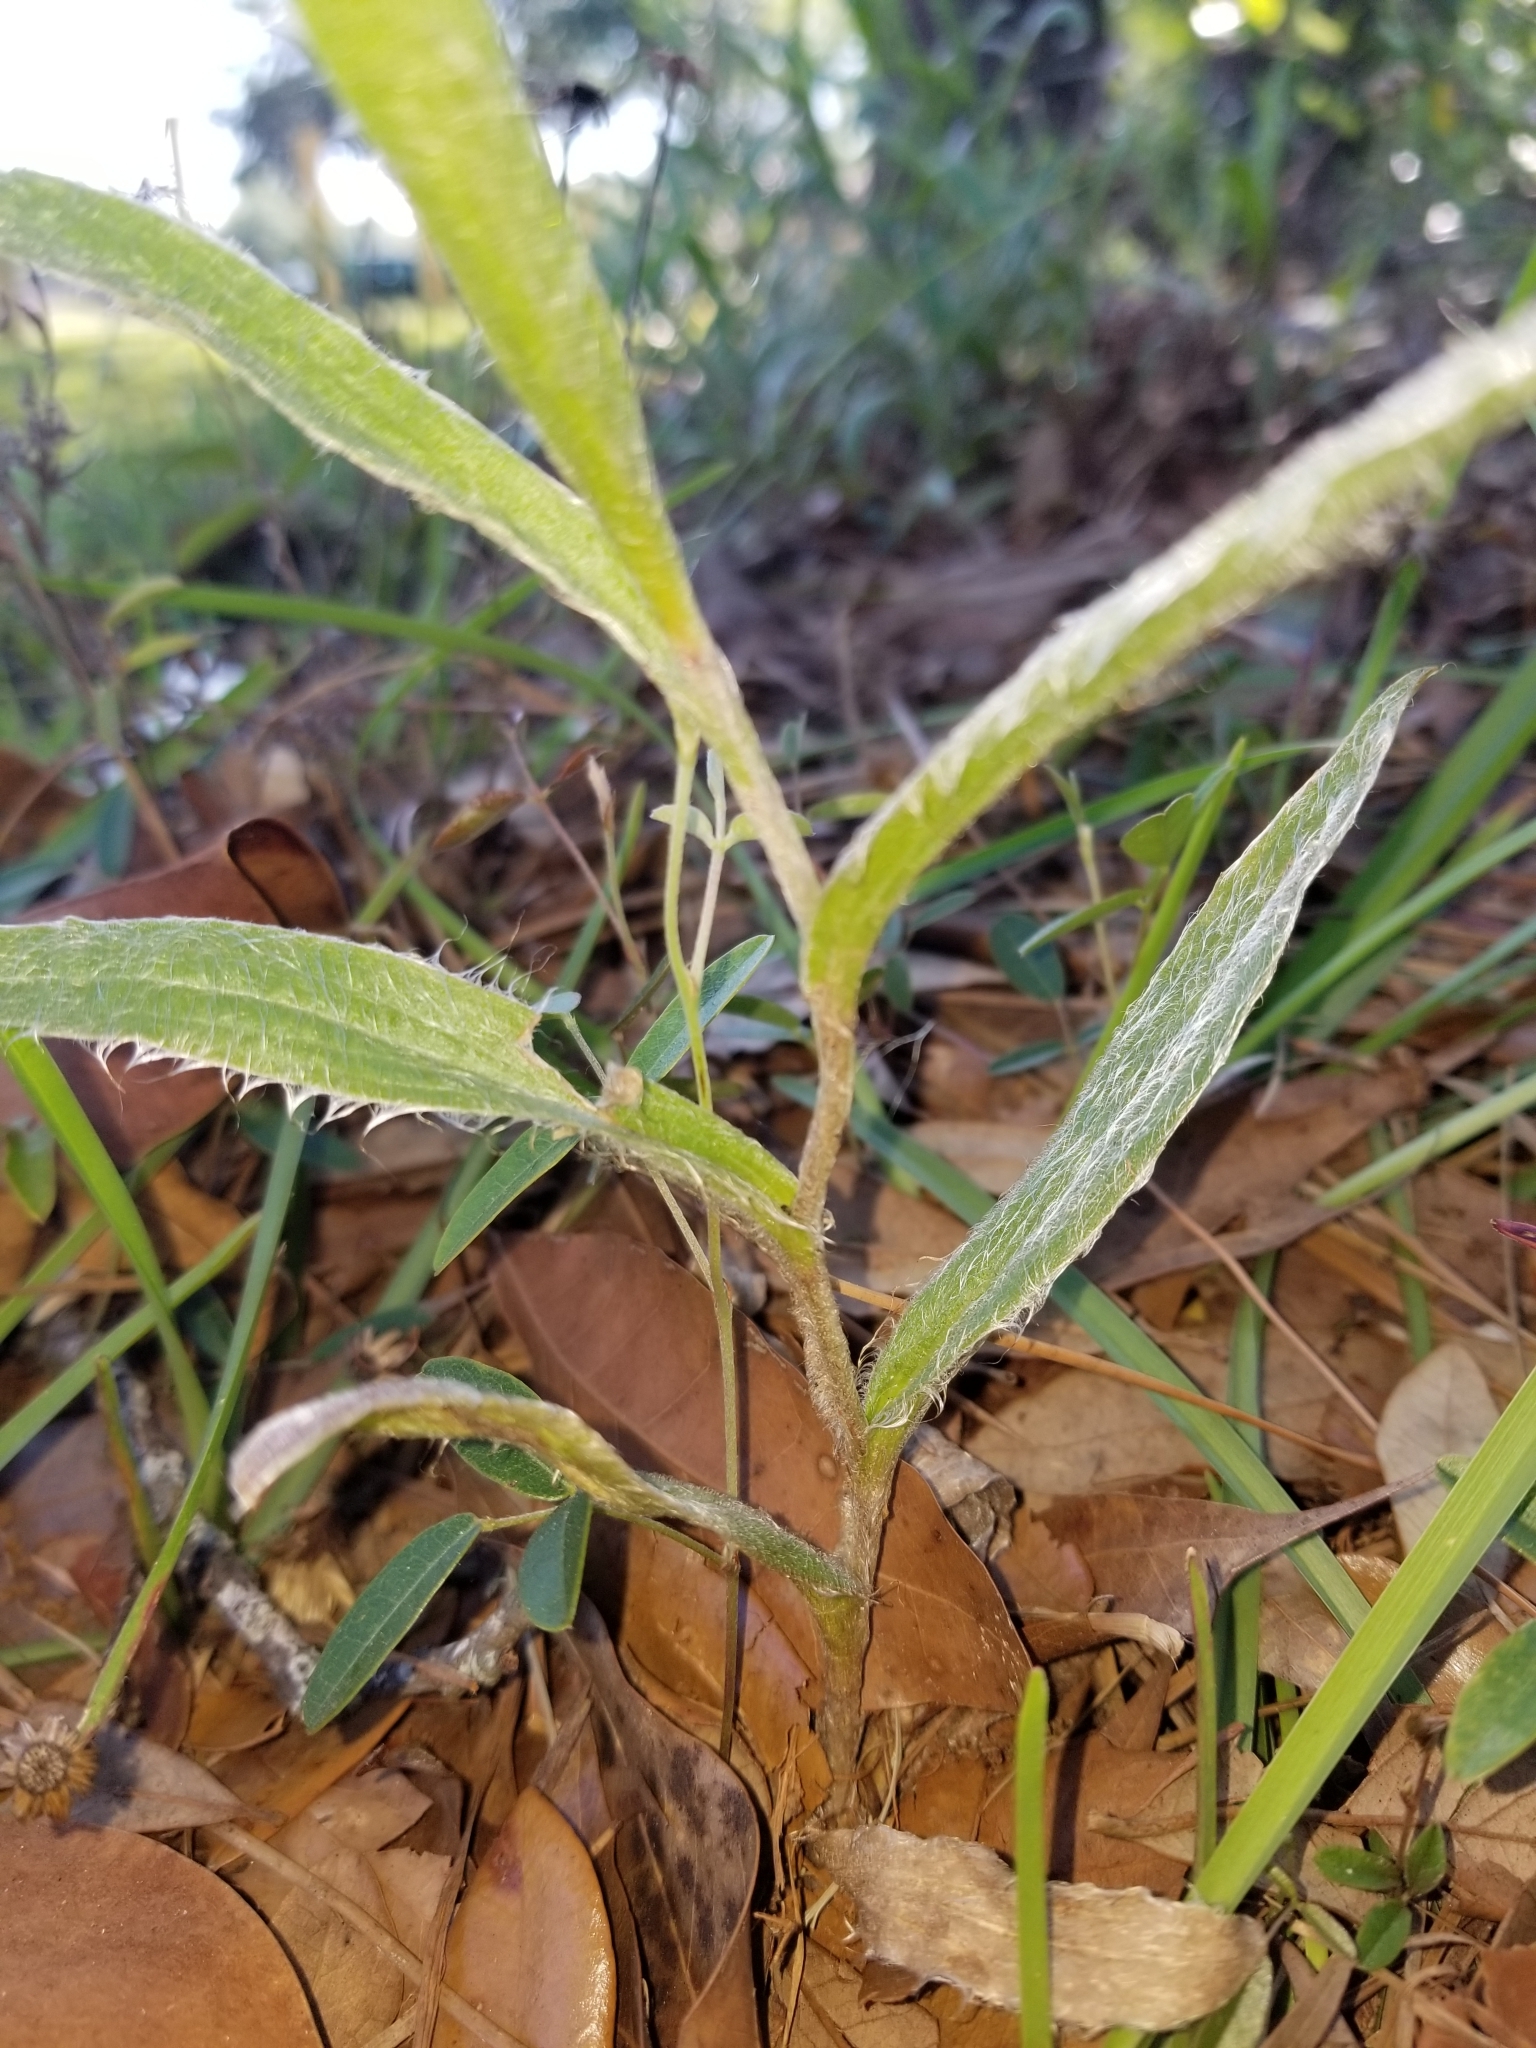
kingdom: Plantae
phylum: Tracheophyta
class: Magnoliopsida
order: Asterales
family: Asteraceae
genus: Pityopsis
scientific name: Pityopsis flexuosa
